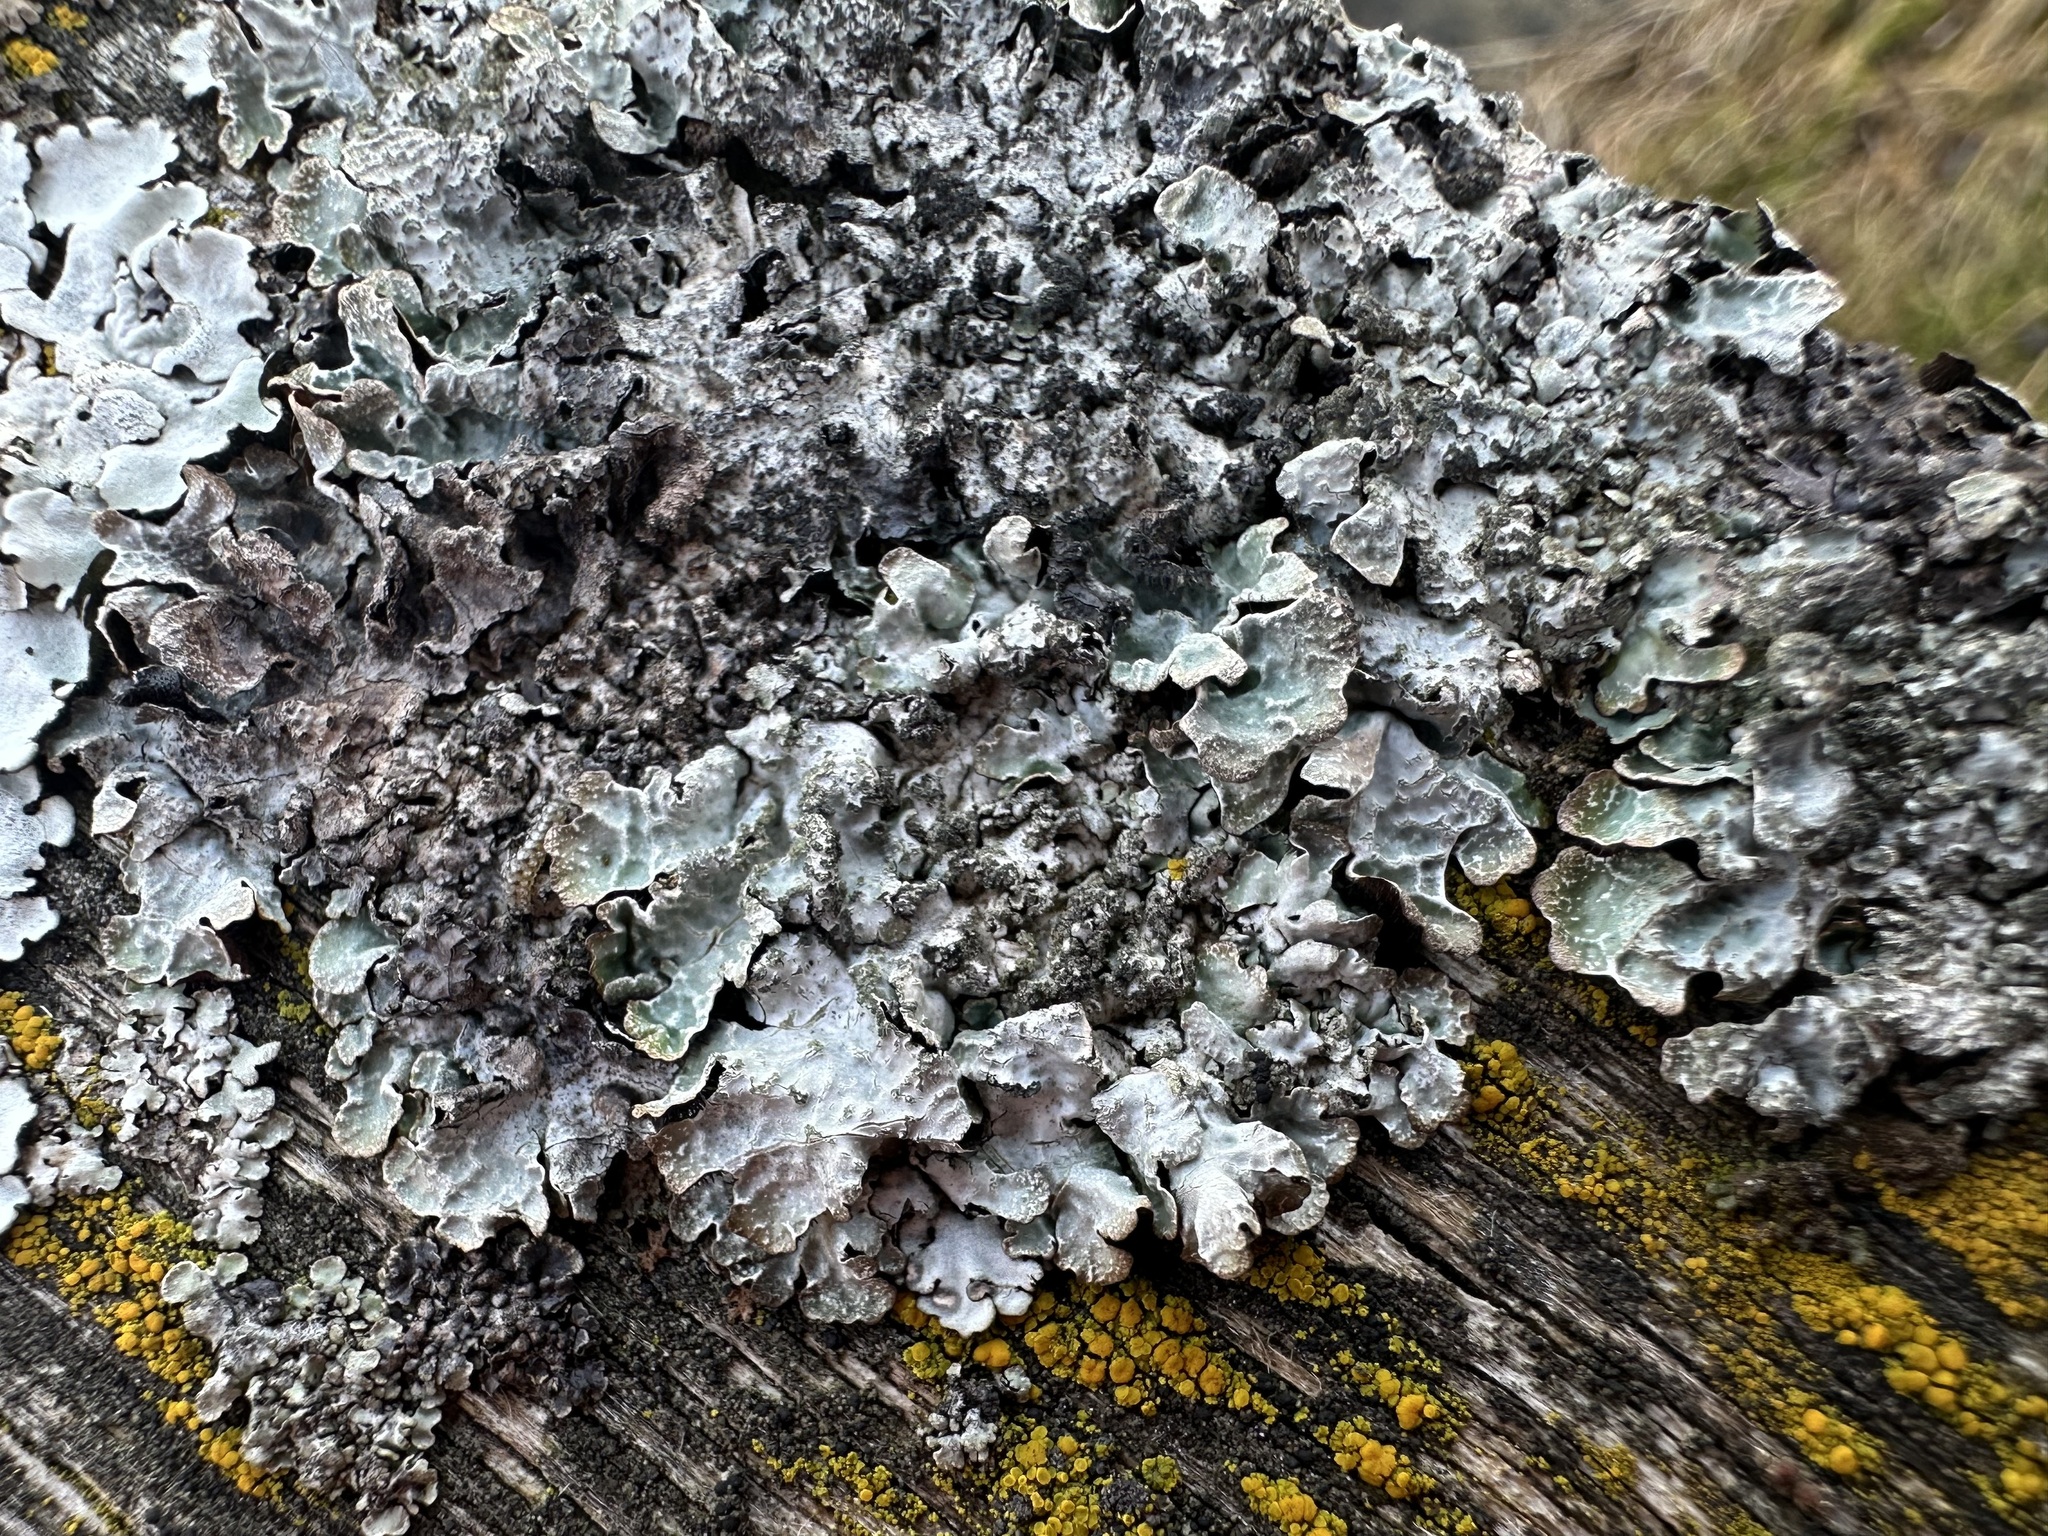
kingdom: Fungi
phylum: Ascomycota
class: Lecanoromycetes
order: Lecanorales
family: Parmeliaceae
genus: Parmelia
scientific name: Parmelia sulcata
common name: Netted shield lichen
